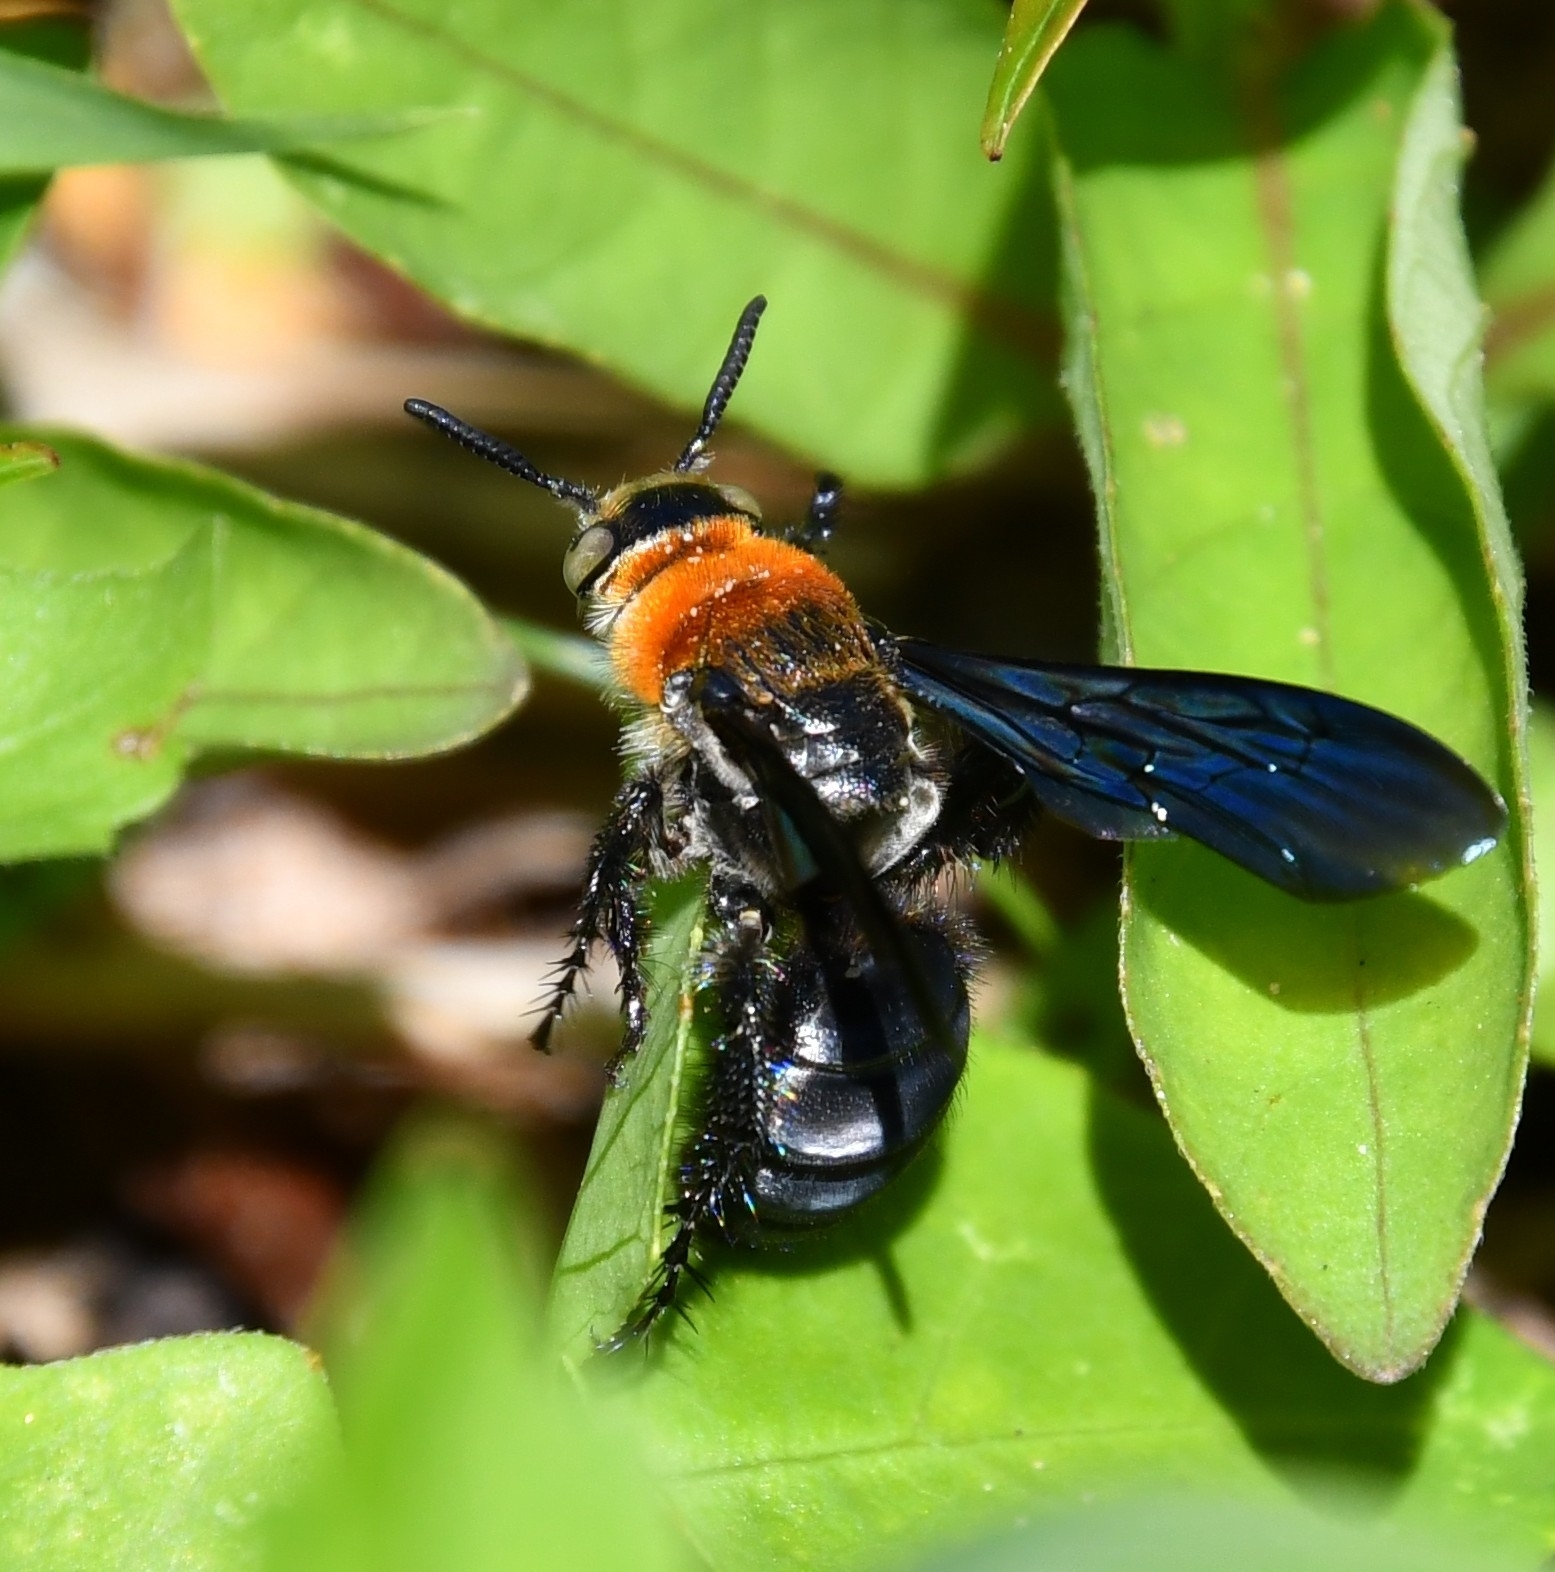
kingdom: Animalia
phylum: Arthropoda
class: Insecta
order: Hymenoptera
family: Scoliidae
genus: Campsomeriella
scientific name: Campsomeriella collaris
